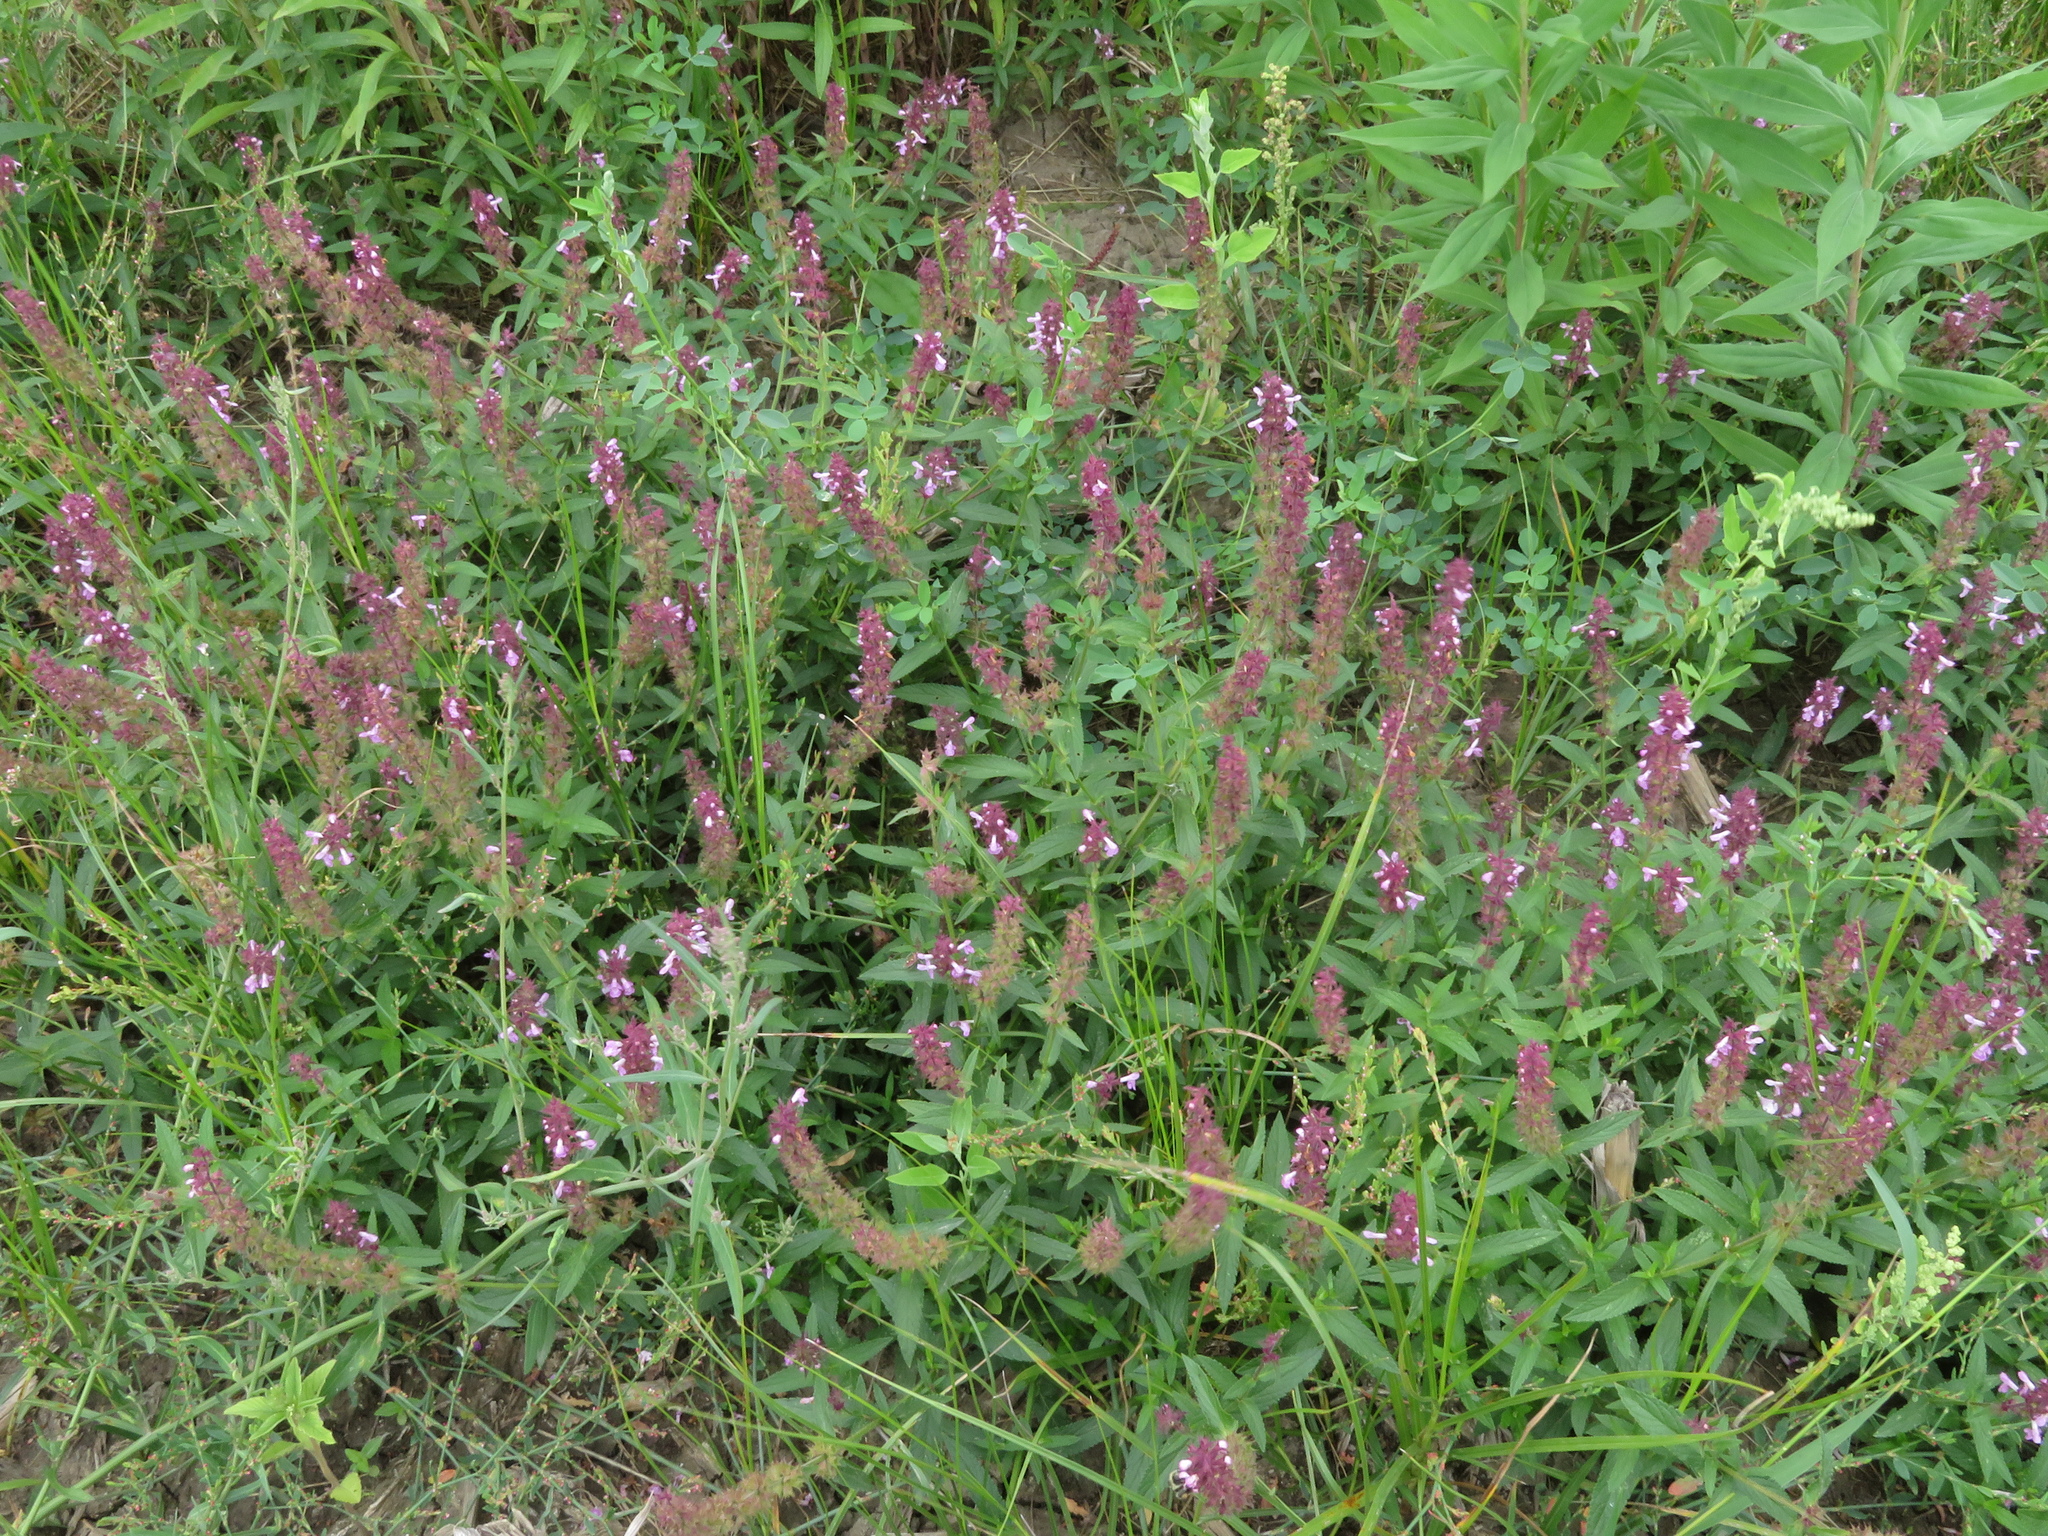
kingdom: Plantae
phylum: Tracheophyta
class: Magnoliopsida
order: Lamiales
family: Lamiaceae
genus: Stachys
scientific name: Stachys palustris
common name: Marsh woundwort
